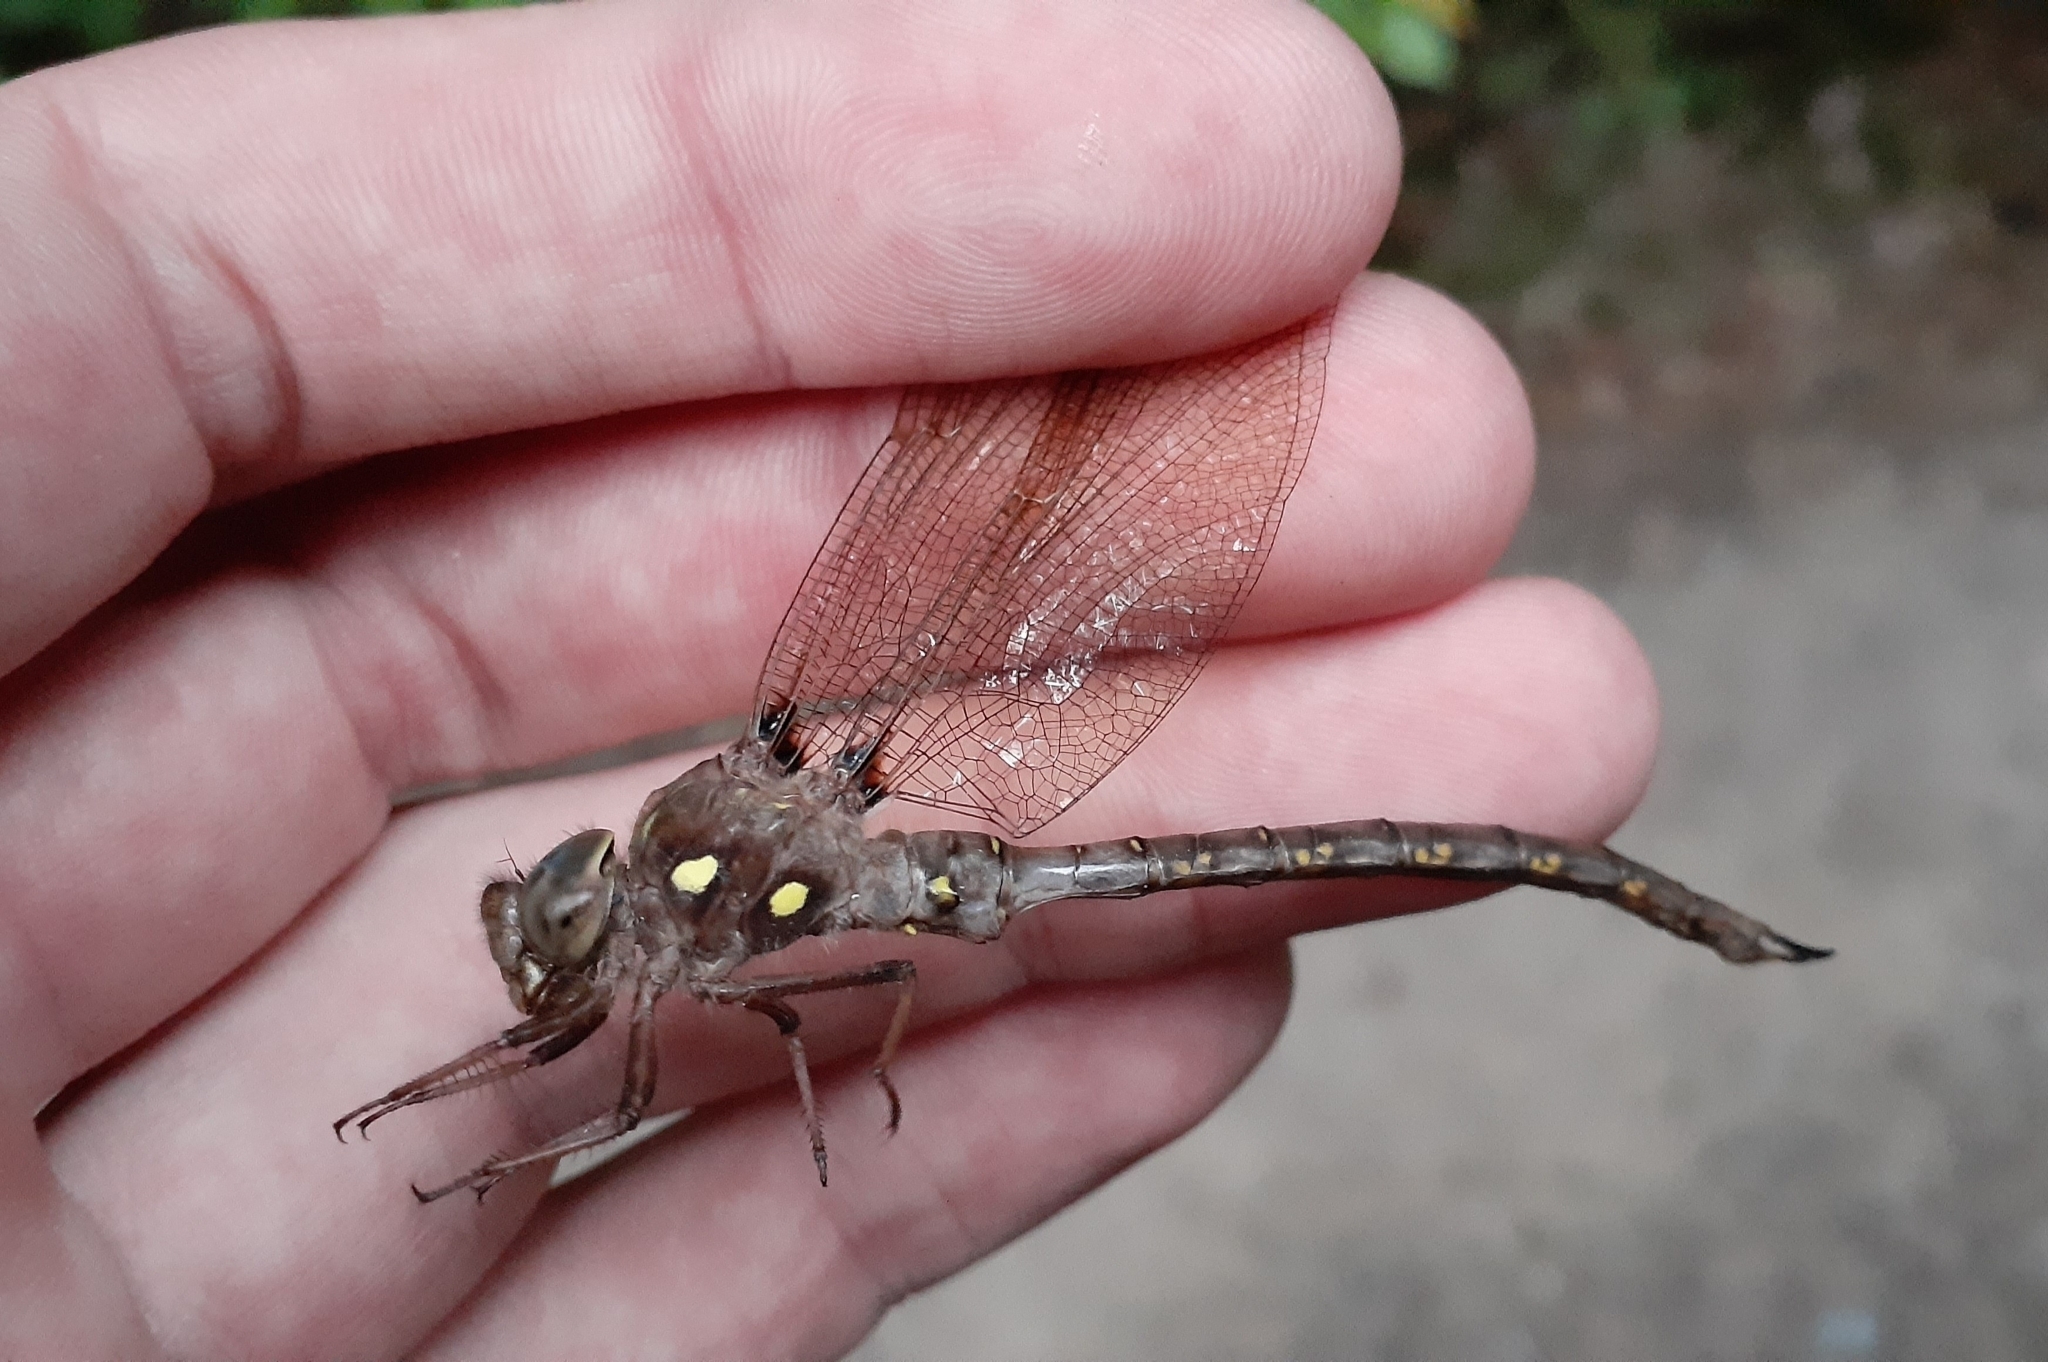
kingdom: Animalia
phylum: Arthropoda
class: Insecta
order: Odonata
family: Aeshnidae
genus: Boyeria
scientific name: Boyeria vinosa
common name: Fawn darner
